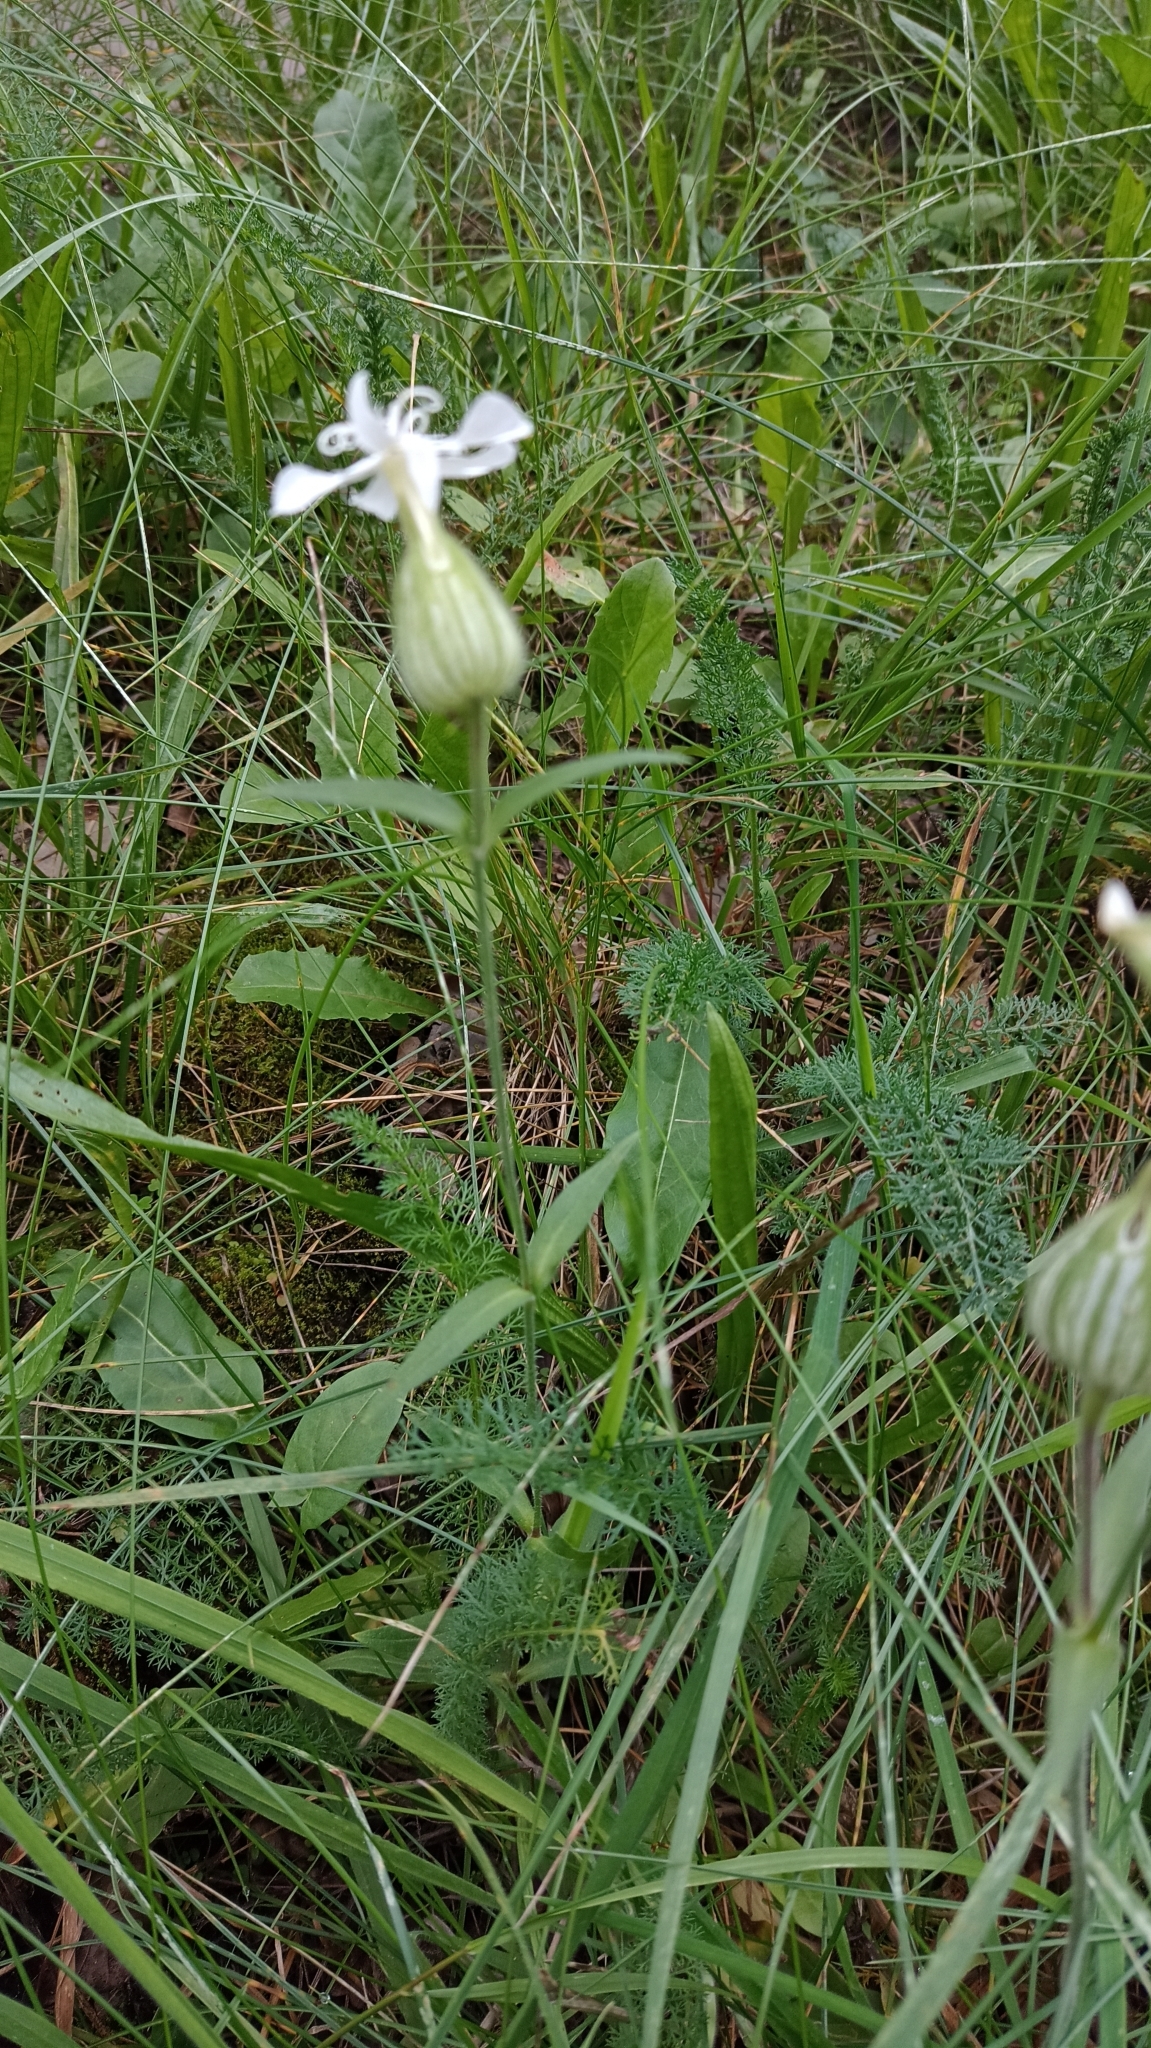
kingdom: Plantae
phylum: Tracheophyta
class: Magnoliopsida
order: Caryophyllales
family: Caryophyllaceae
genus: Silene
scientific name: Silene latifolia
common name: White campion
